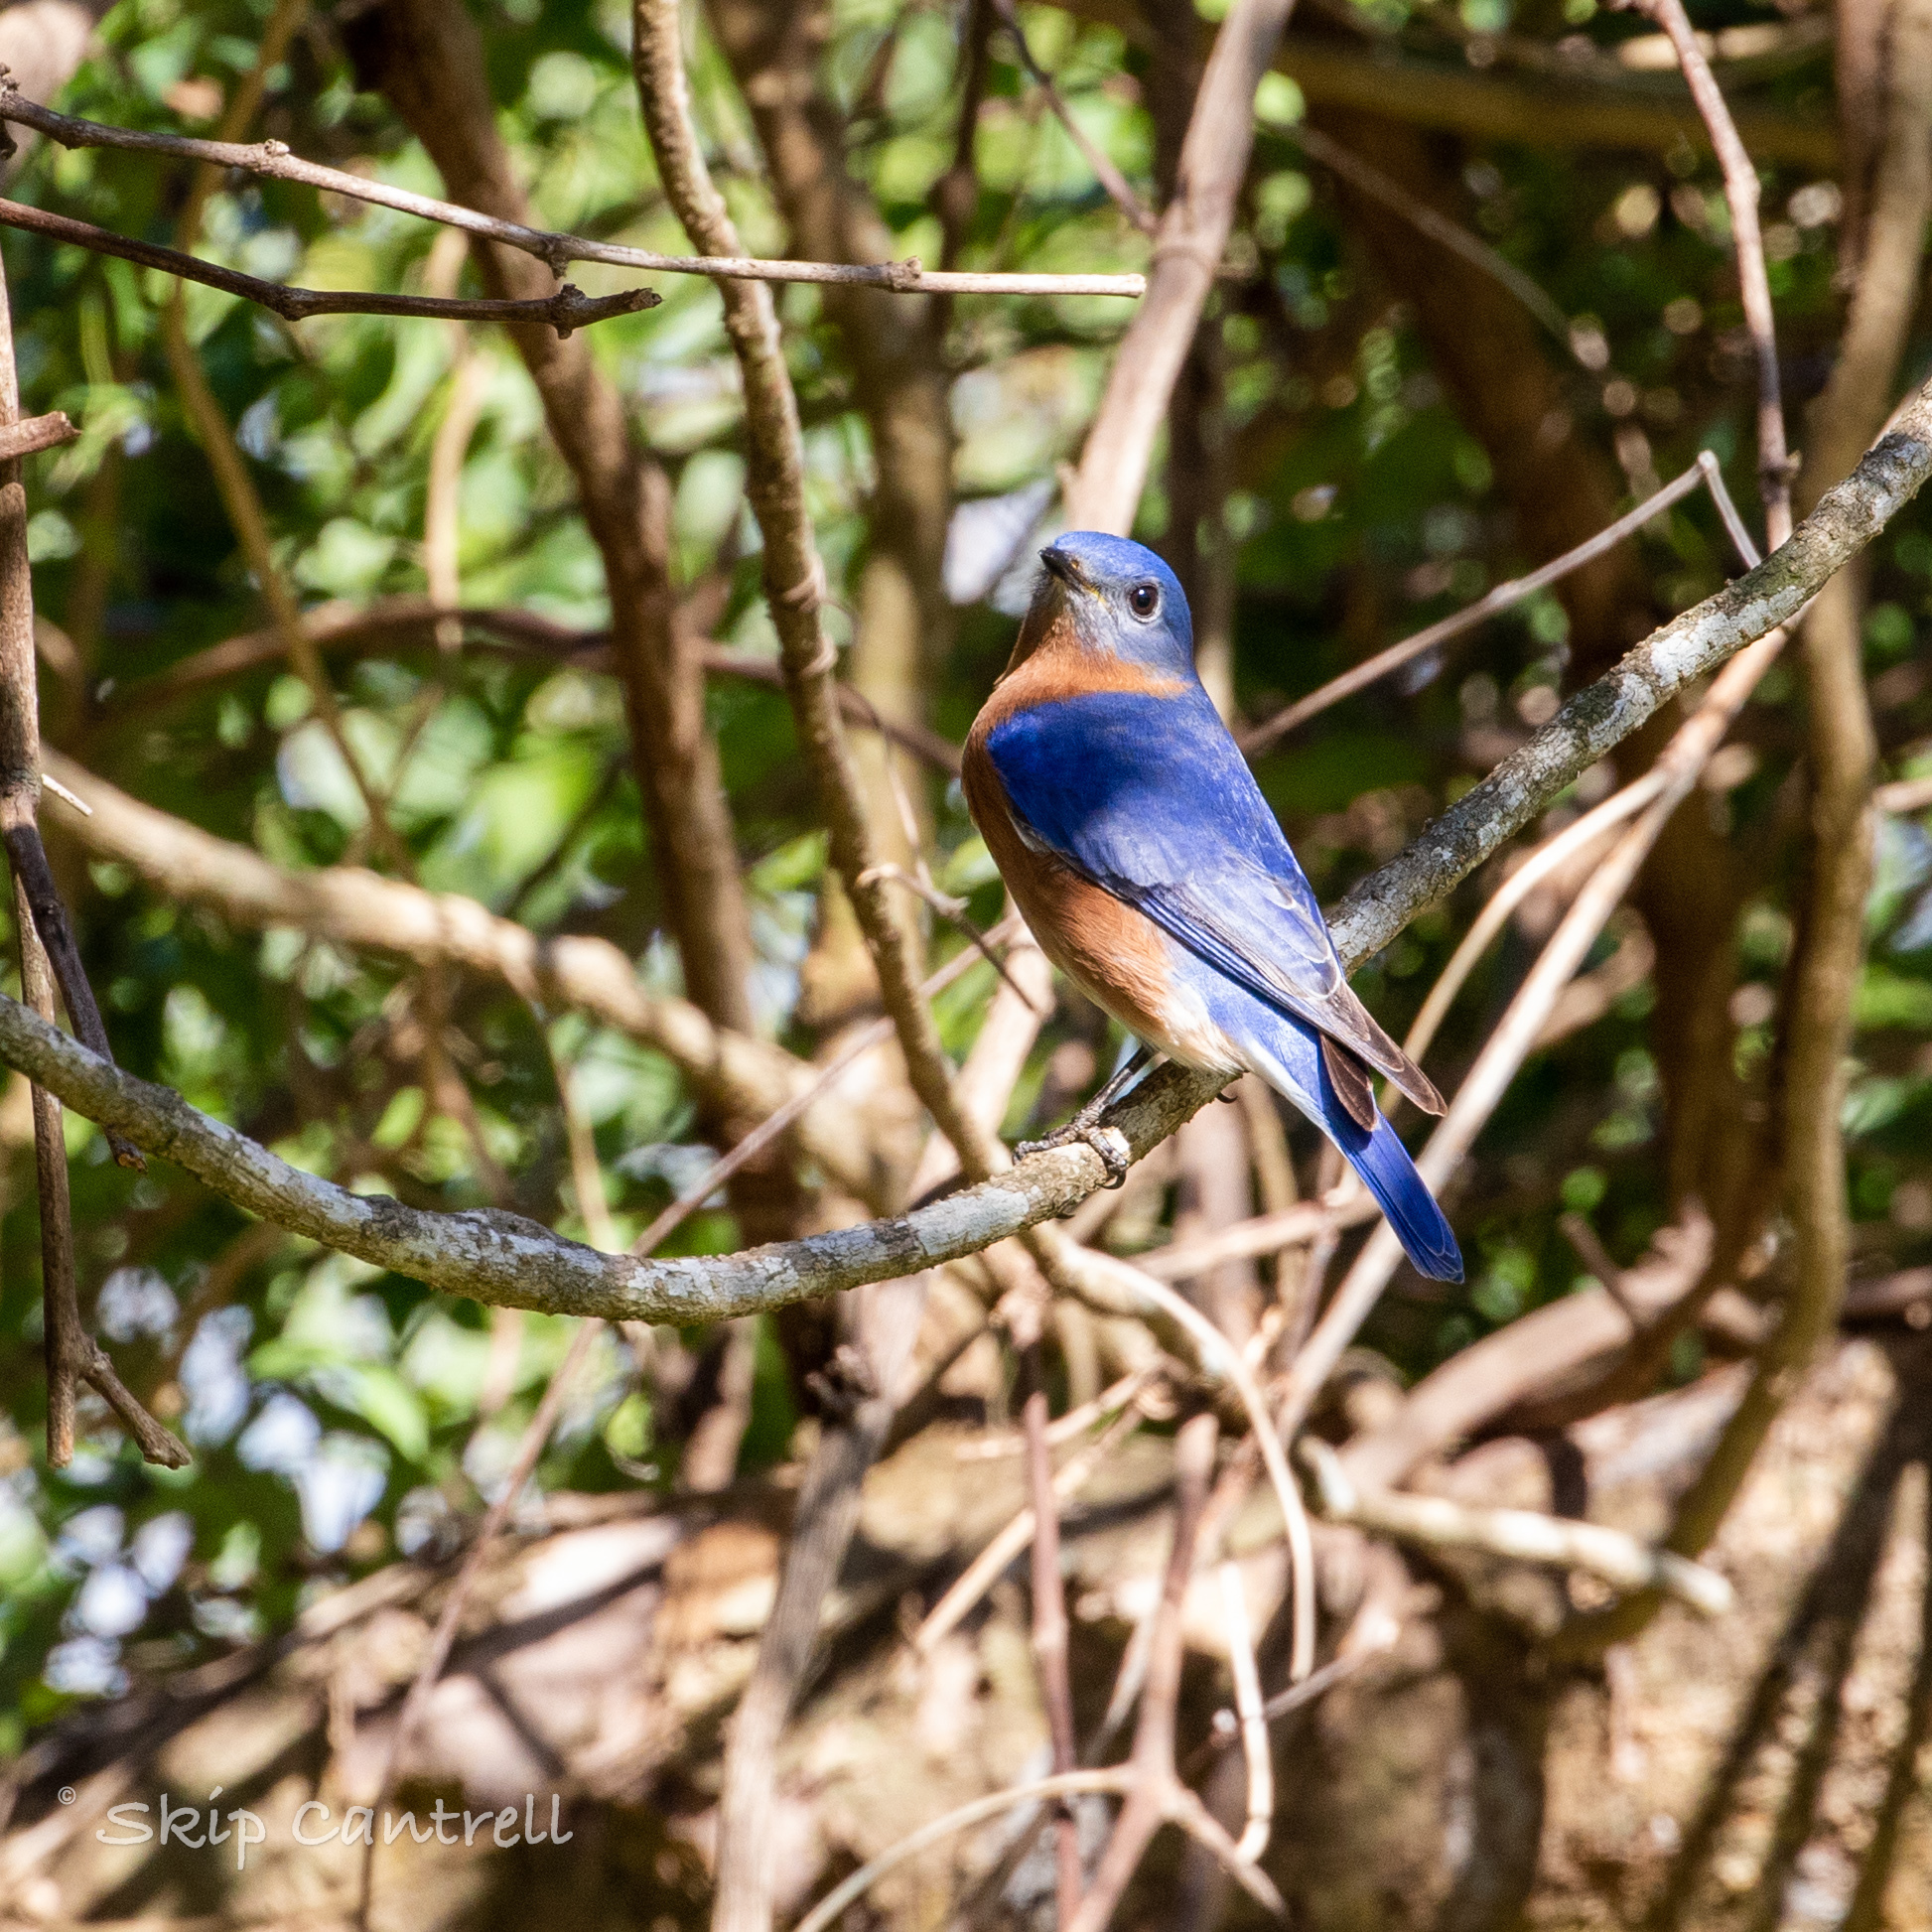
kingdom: Animalia
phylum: Chordata
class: Aves
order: Passeriformes
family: Turdidae
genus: Sialia
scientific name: Sialia sialis
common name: Eastern bluebird
